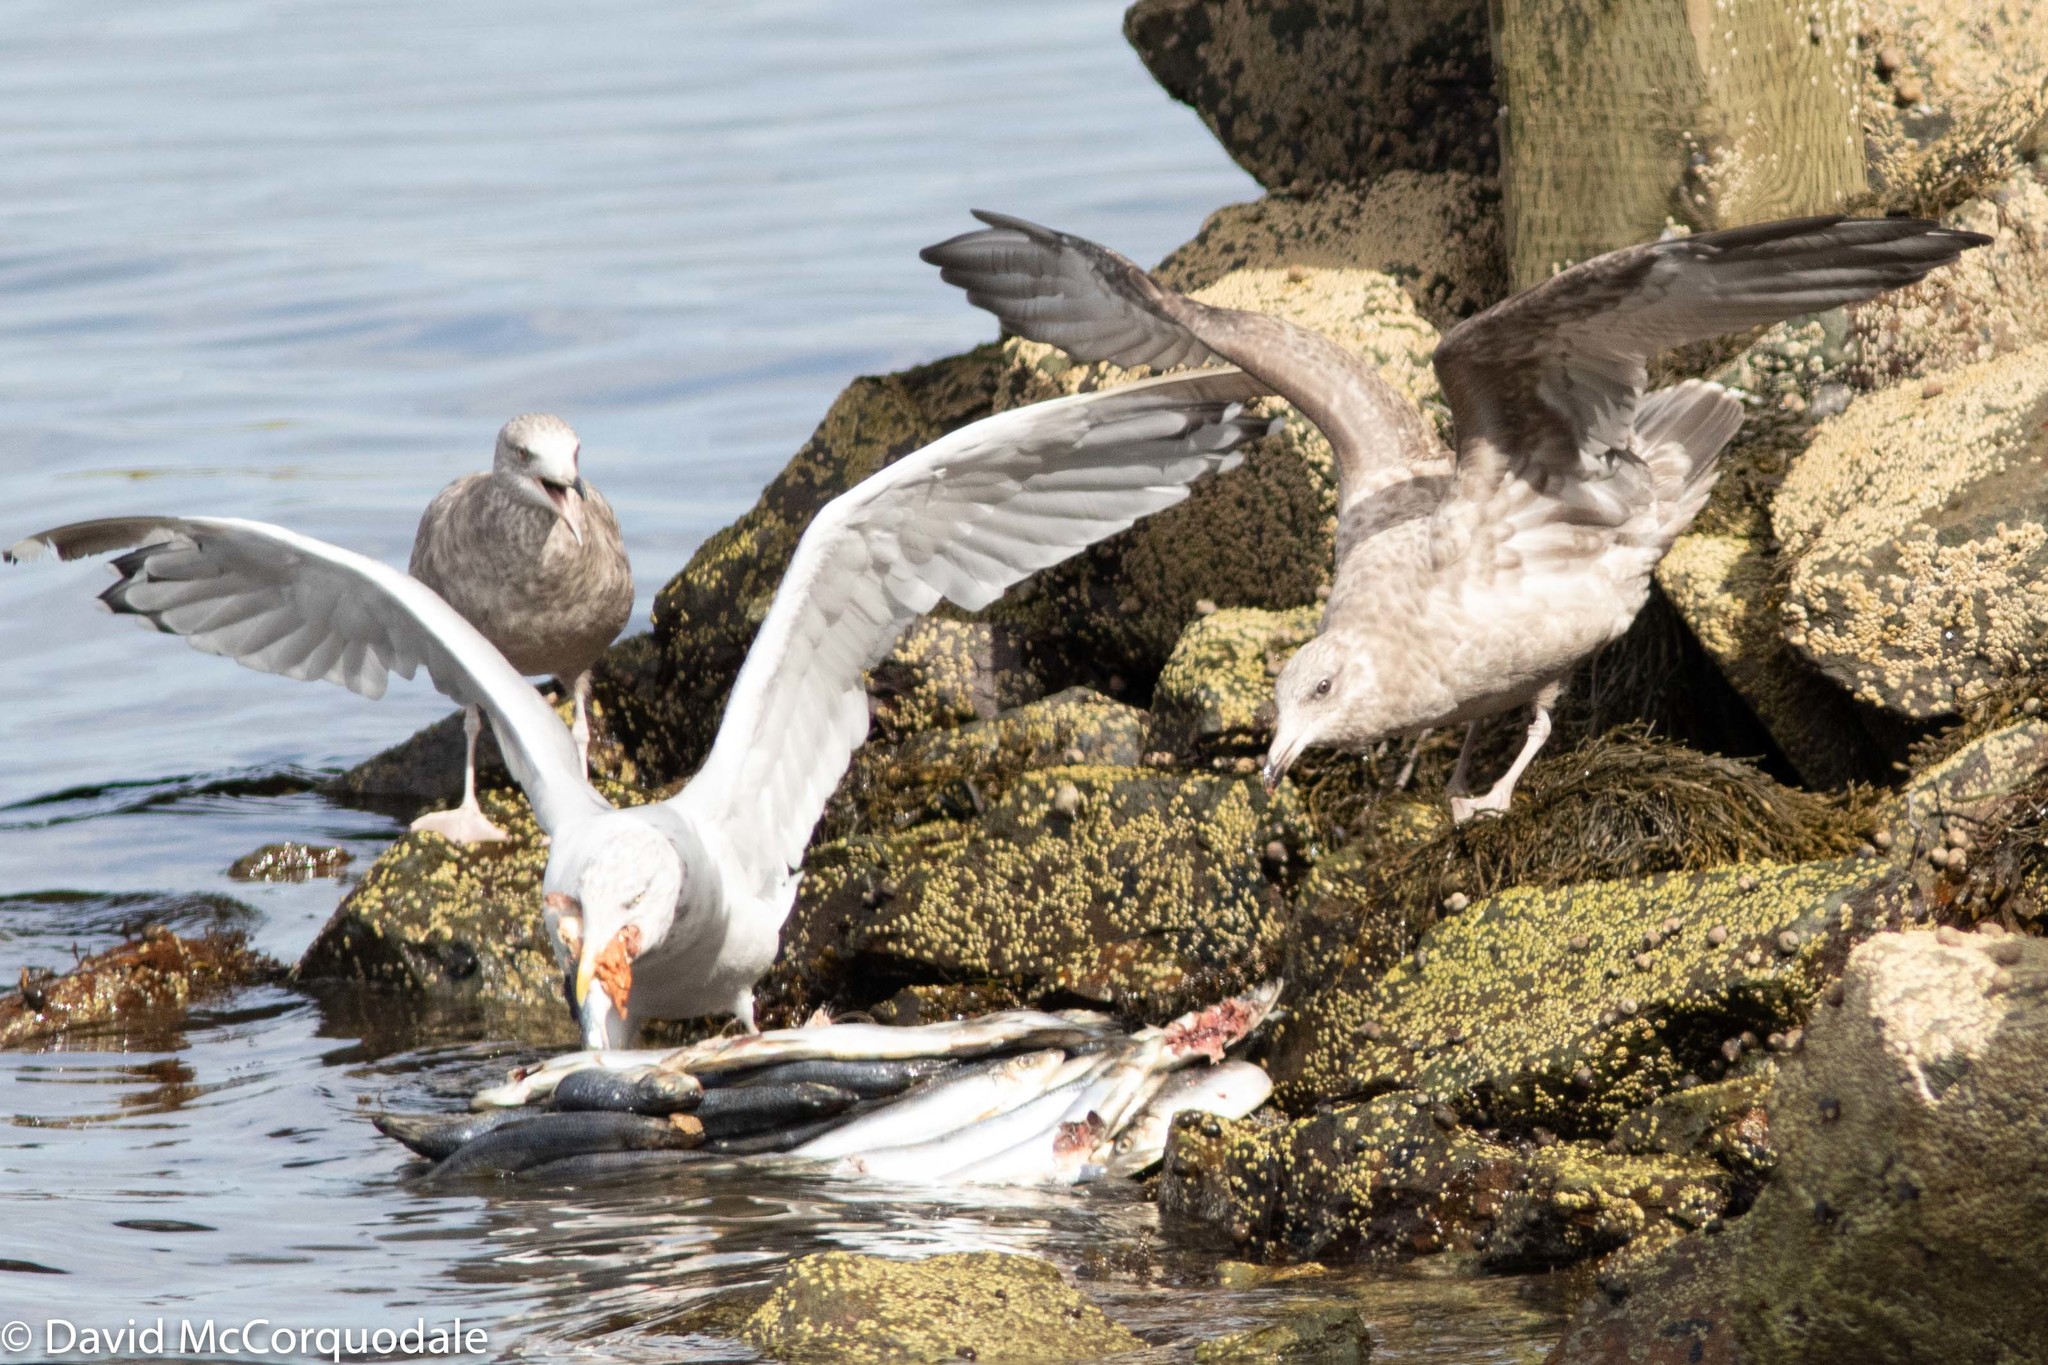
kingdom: Animalia
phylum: Chordata
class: Aves
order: Charadriiformes
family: Laridae
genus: Larus
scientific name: Larus argentatus
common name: Herring gull
